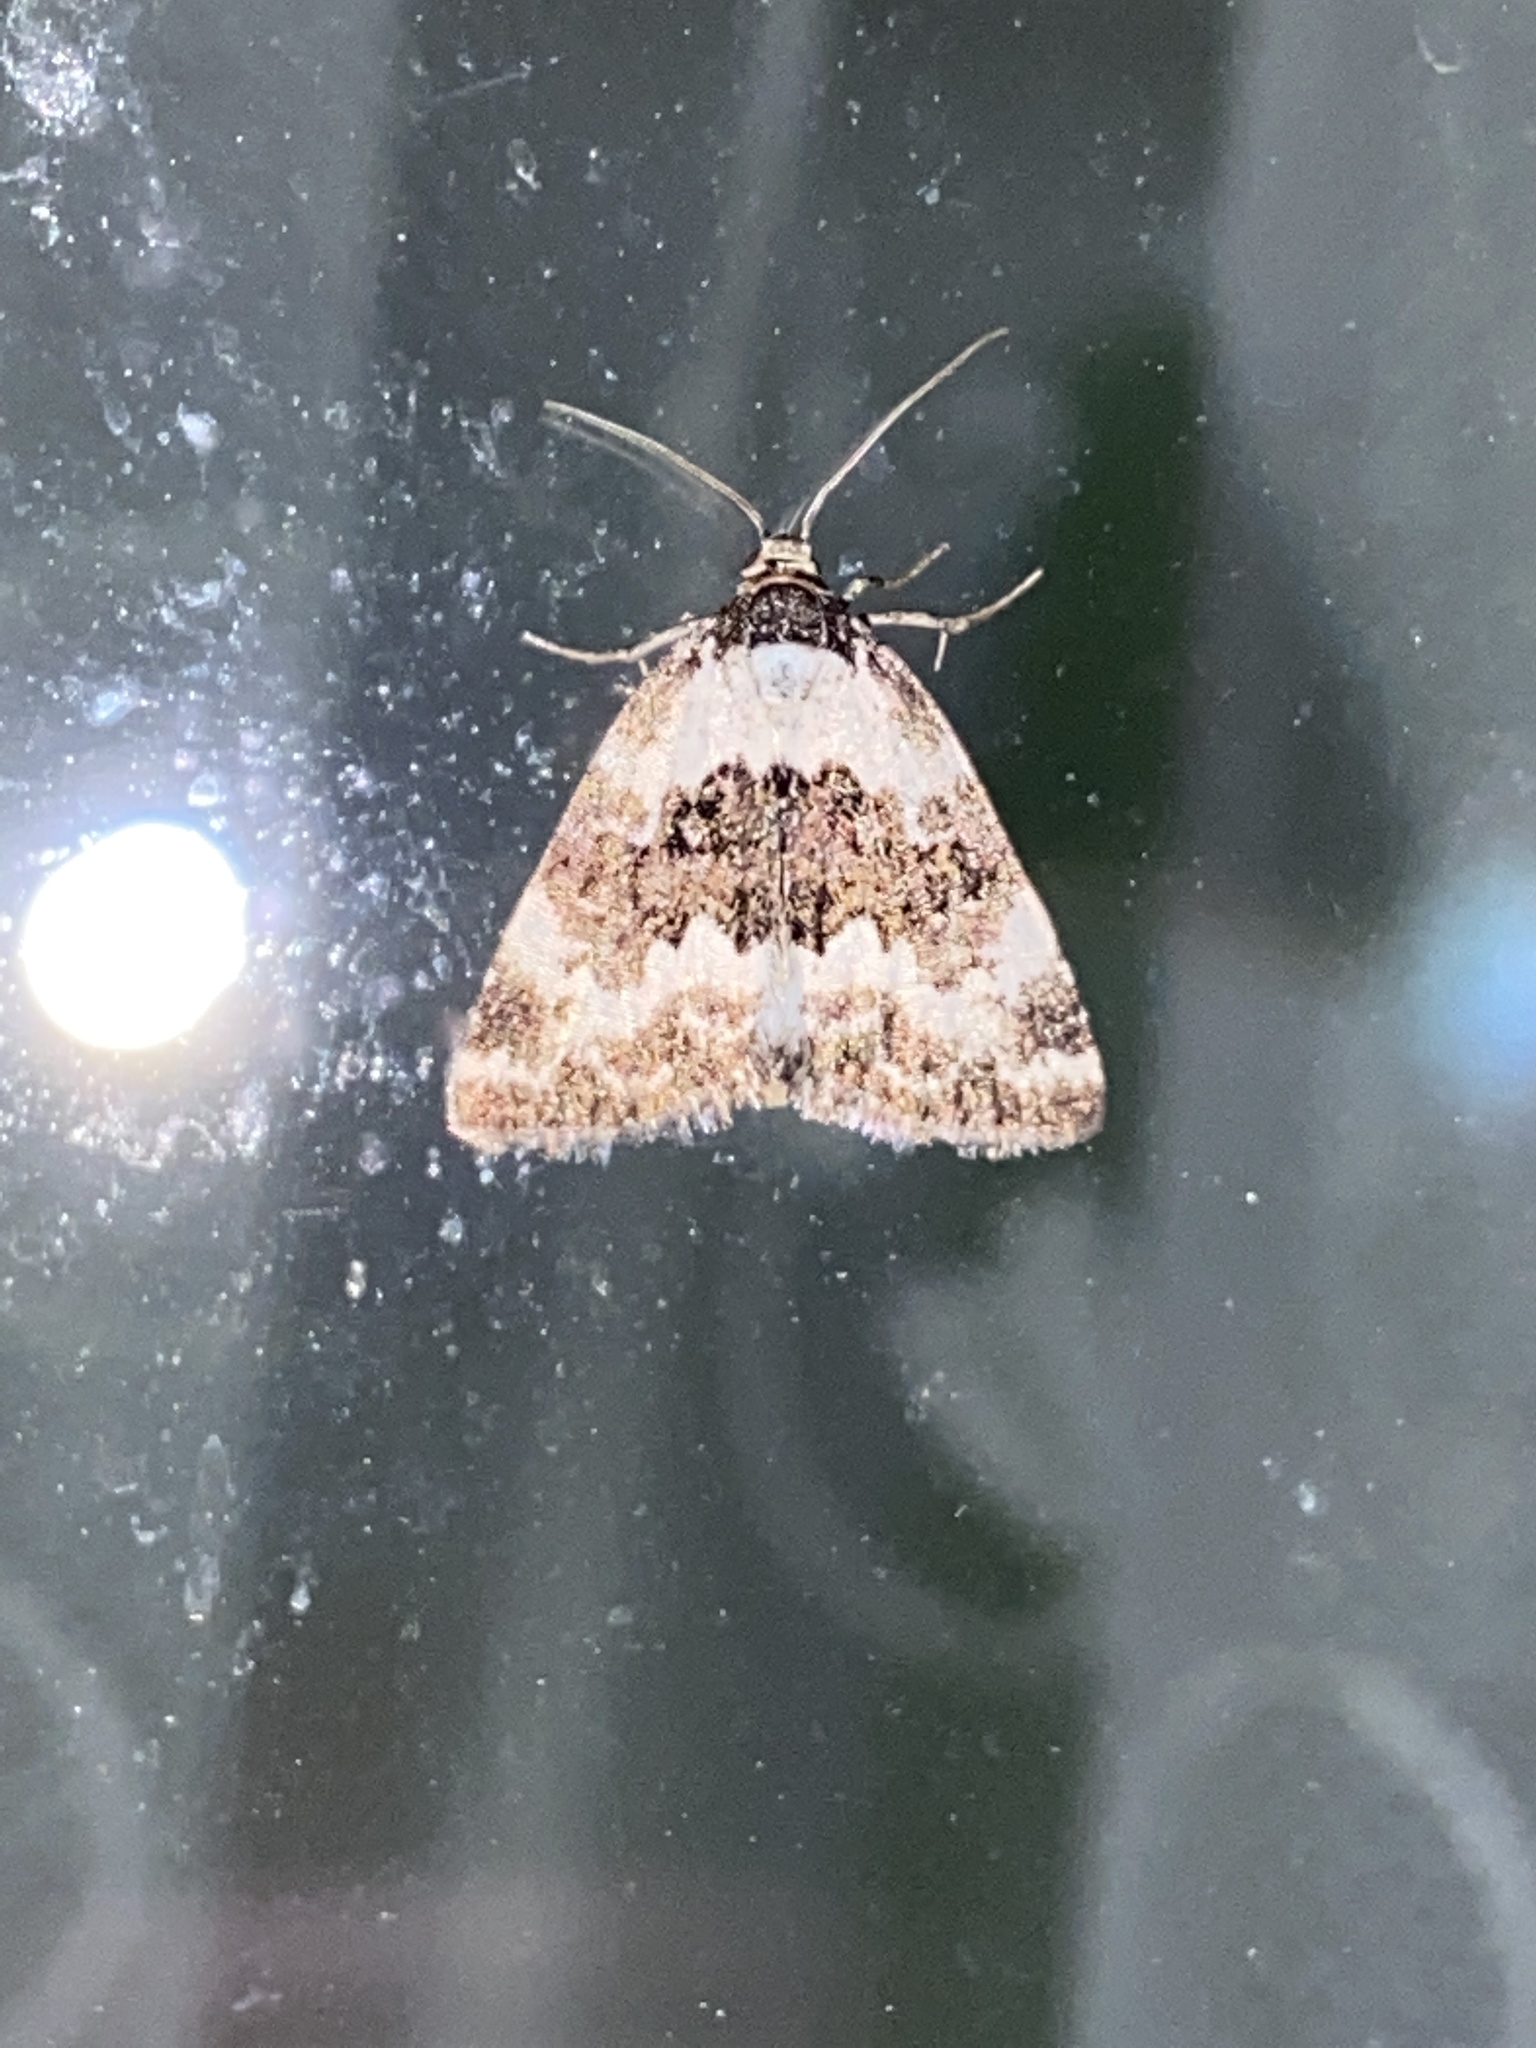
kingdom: Animalia
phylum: Arthropoda
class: Insecta
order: Lepidoptera
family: Noctuidae
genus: Deltote
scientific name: Deltote deceptoria
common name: Pretty marbled
